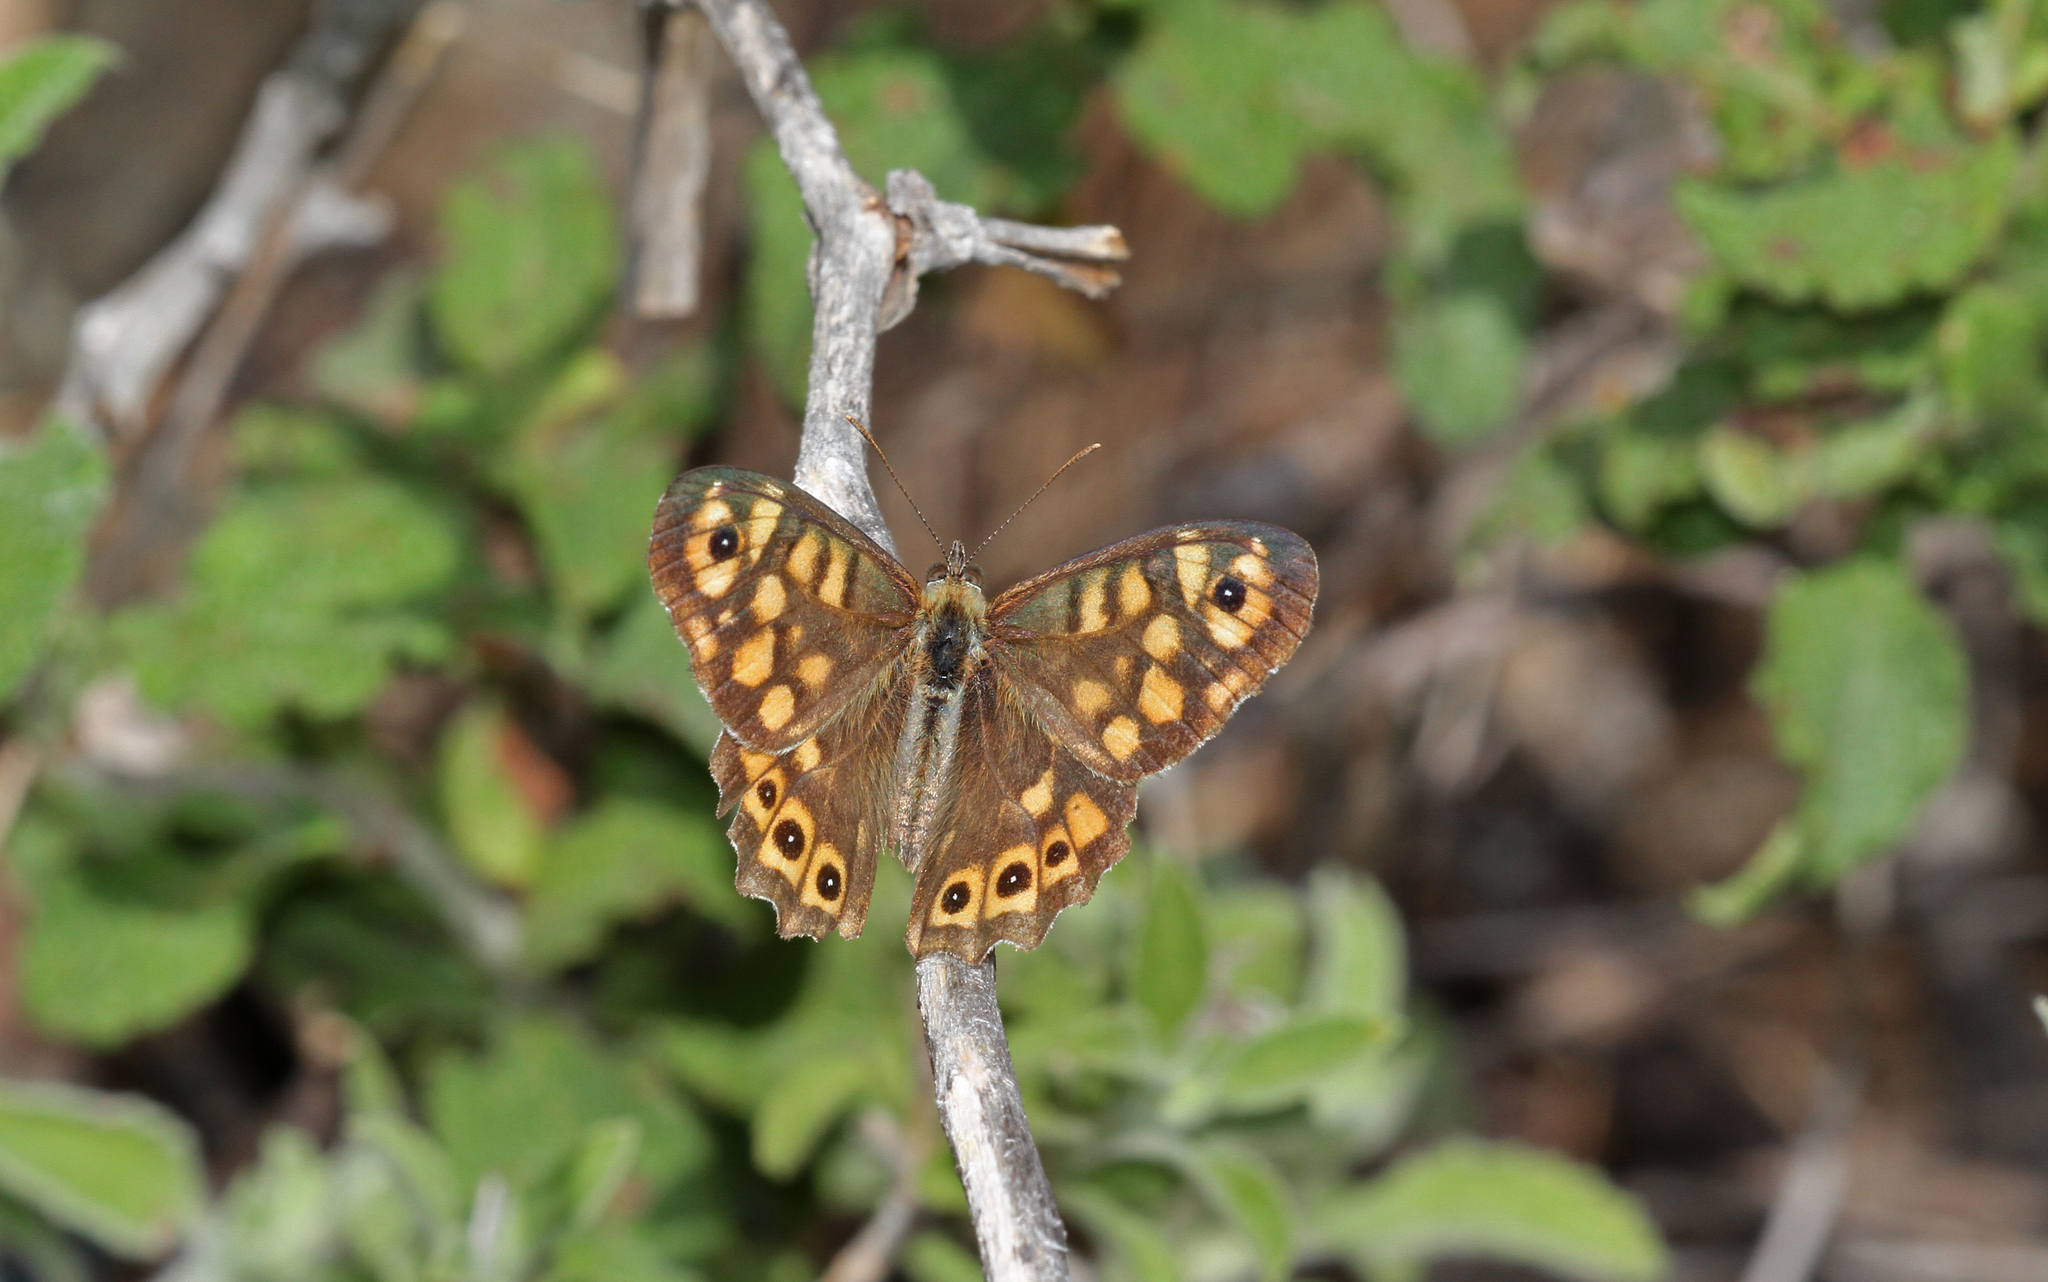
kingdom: Animalia
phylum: Arthropoda
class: Insecta
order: Lepidoptera
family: Nymphalidae
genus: Pararge
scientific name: Pararge aegeria
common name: Speckled wood
